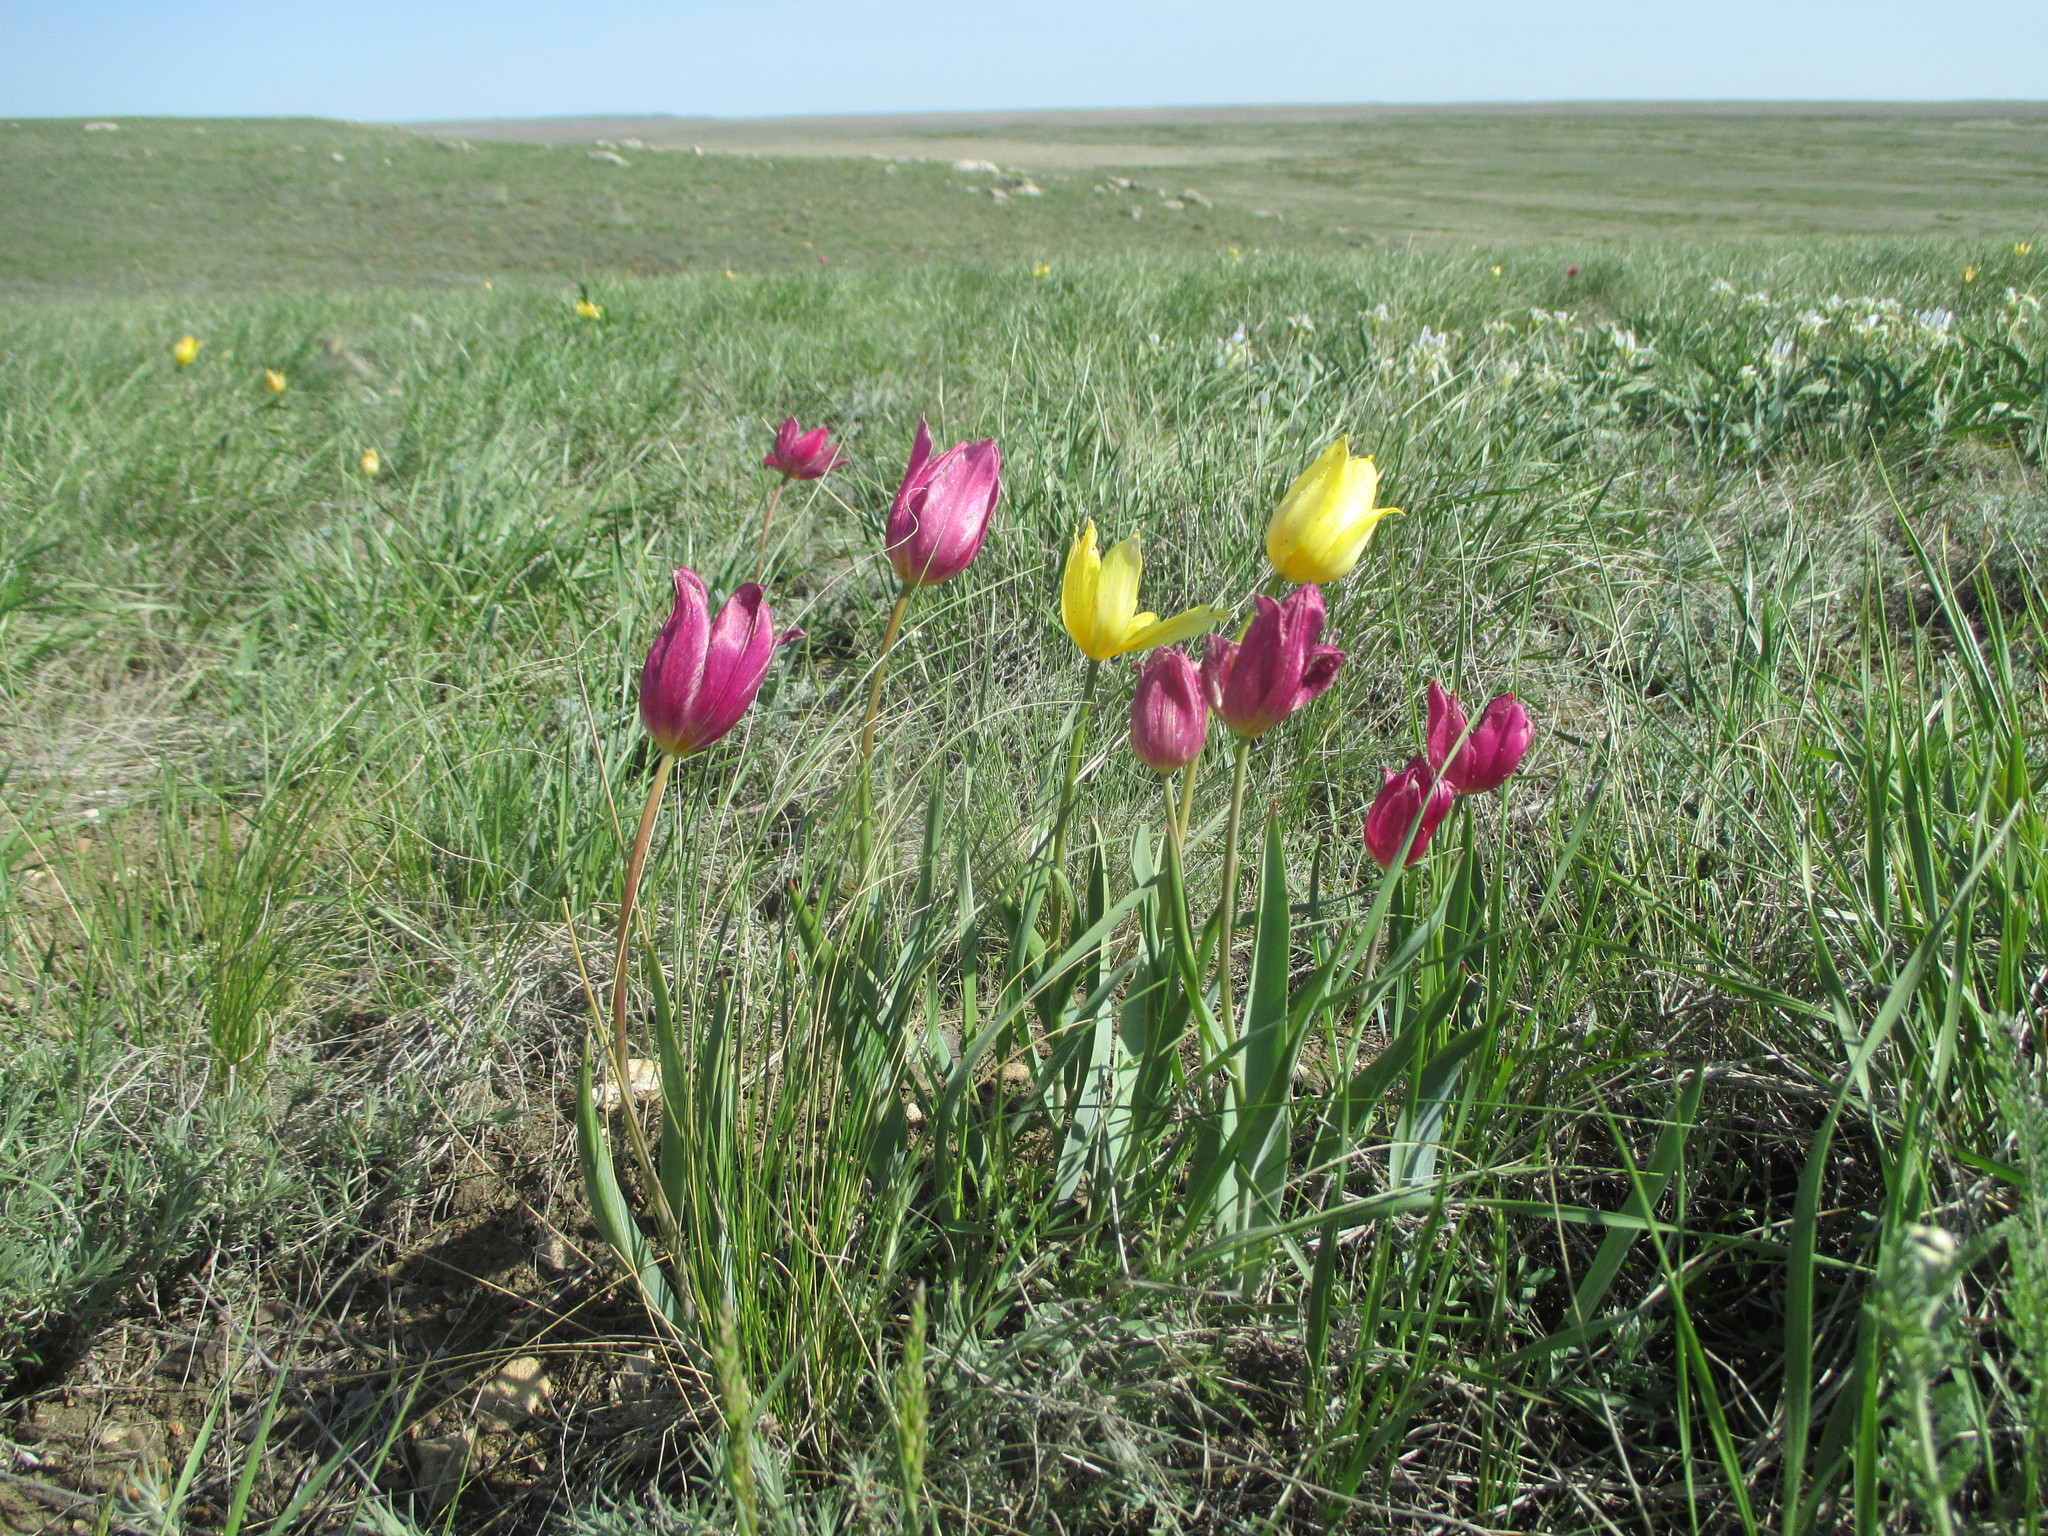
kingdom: Plantae
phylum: Tracheophyta
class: Liliopsida
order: Liliales
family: Liliaceae
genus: Tulipa
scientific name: Tulipa suaveolens
